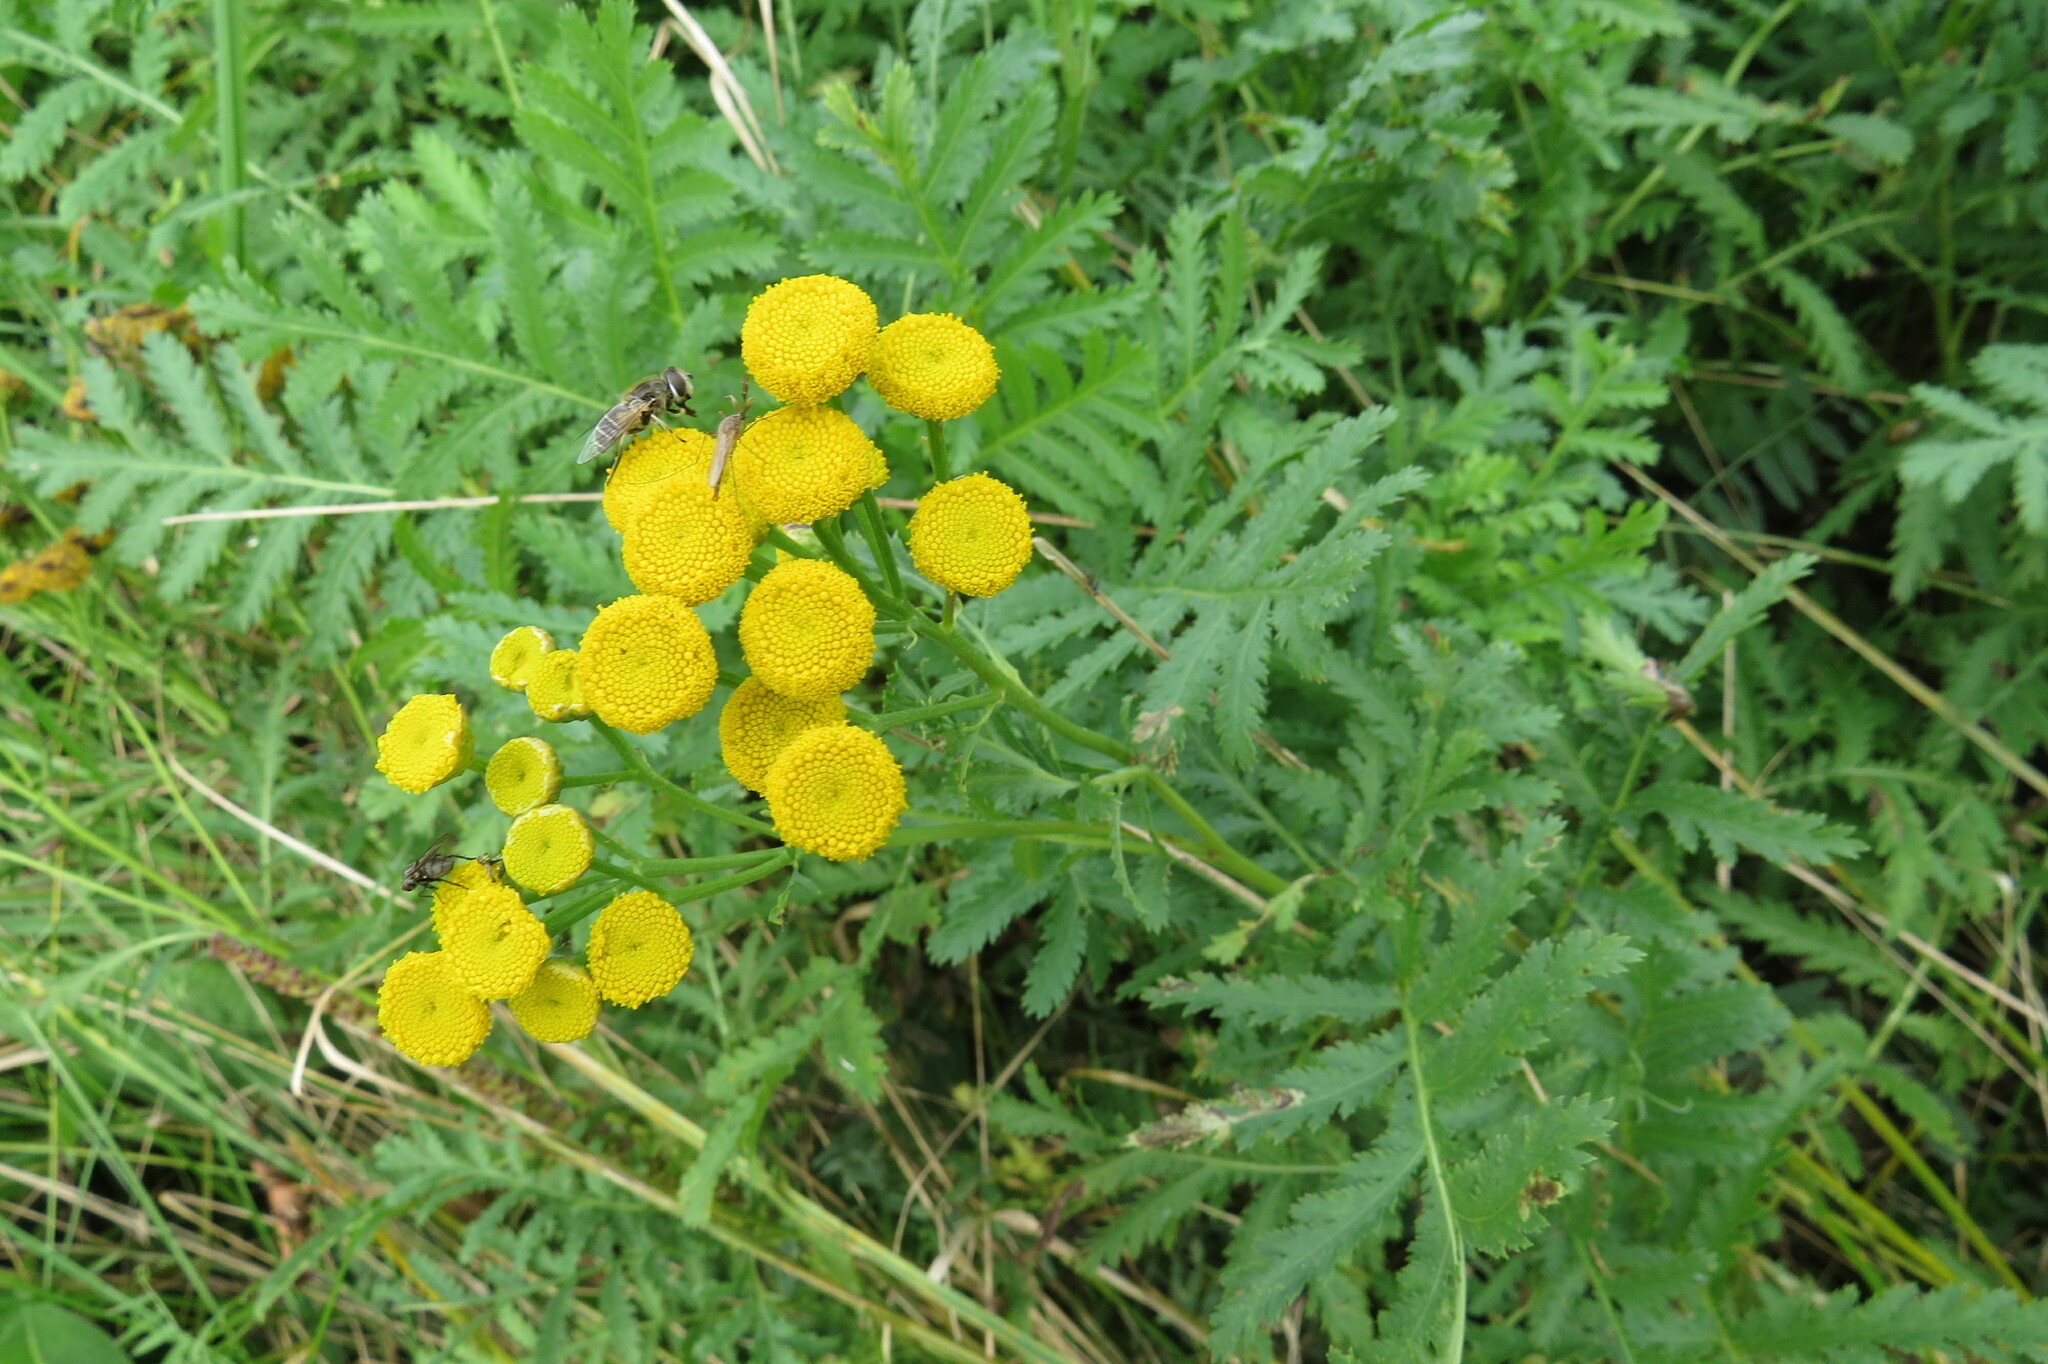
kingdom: Plantae
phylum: Tracheophyta
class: Magnoliopsida
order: Asterales
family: Asteraceae
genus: Tanacetum
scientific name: Tanacetum vulgare
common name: Common tansy
